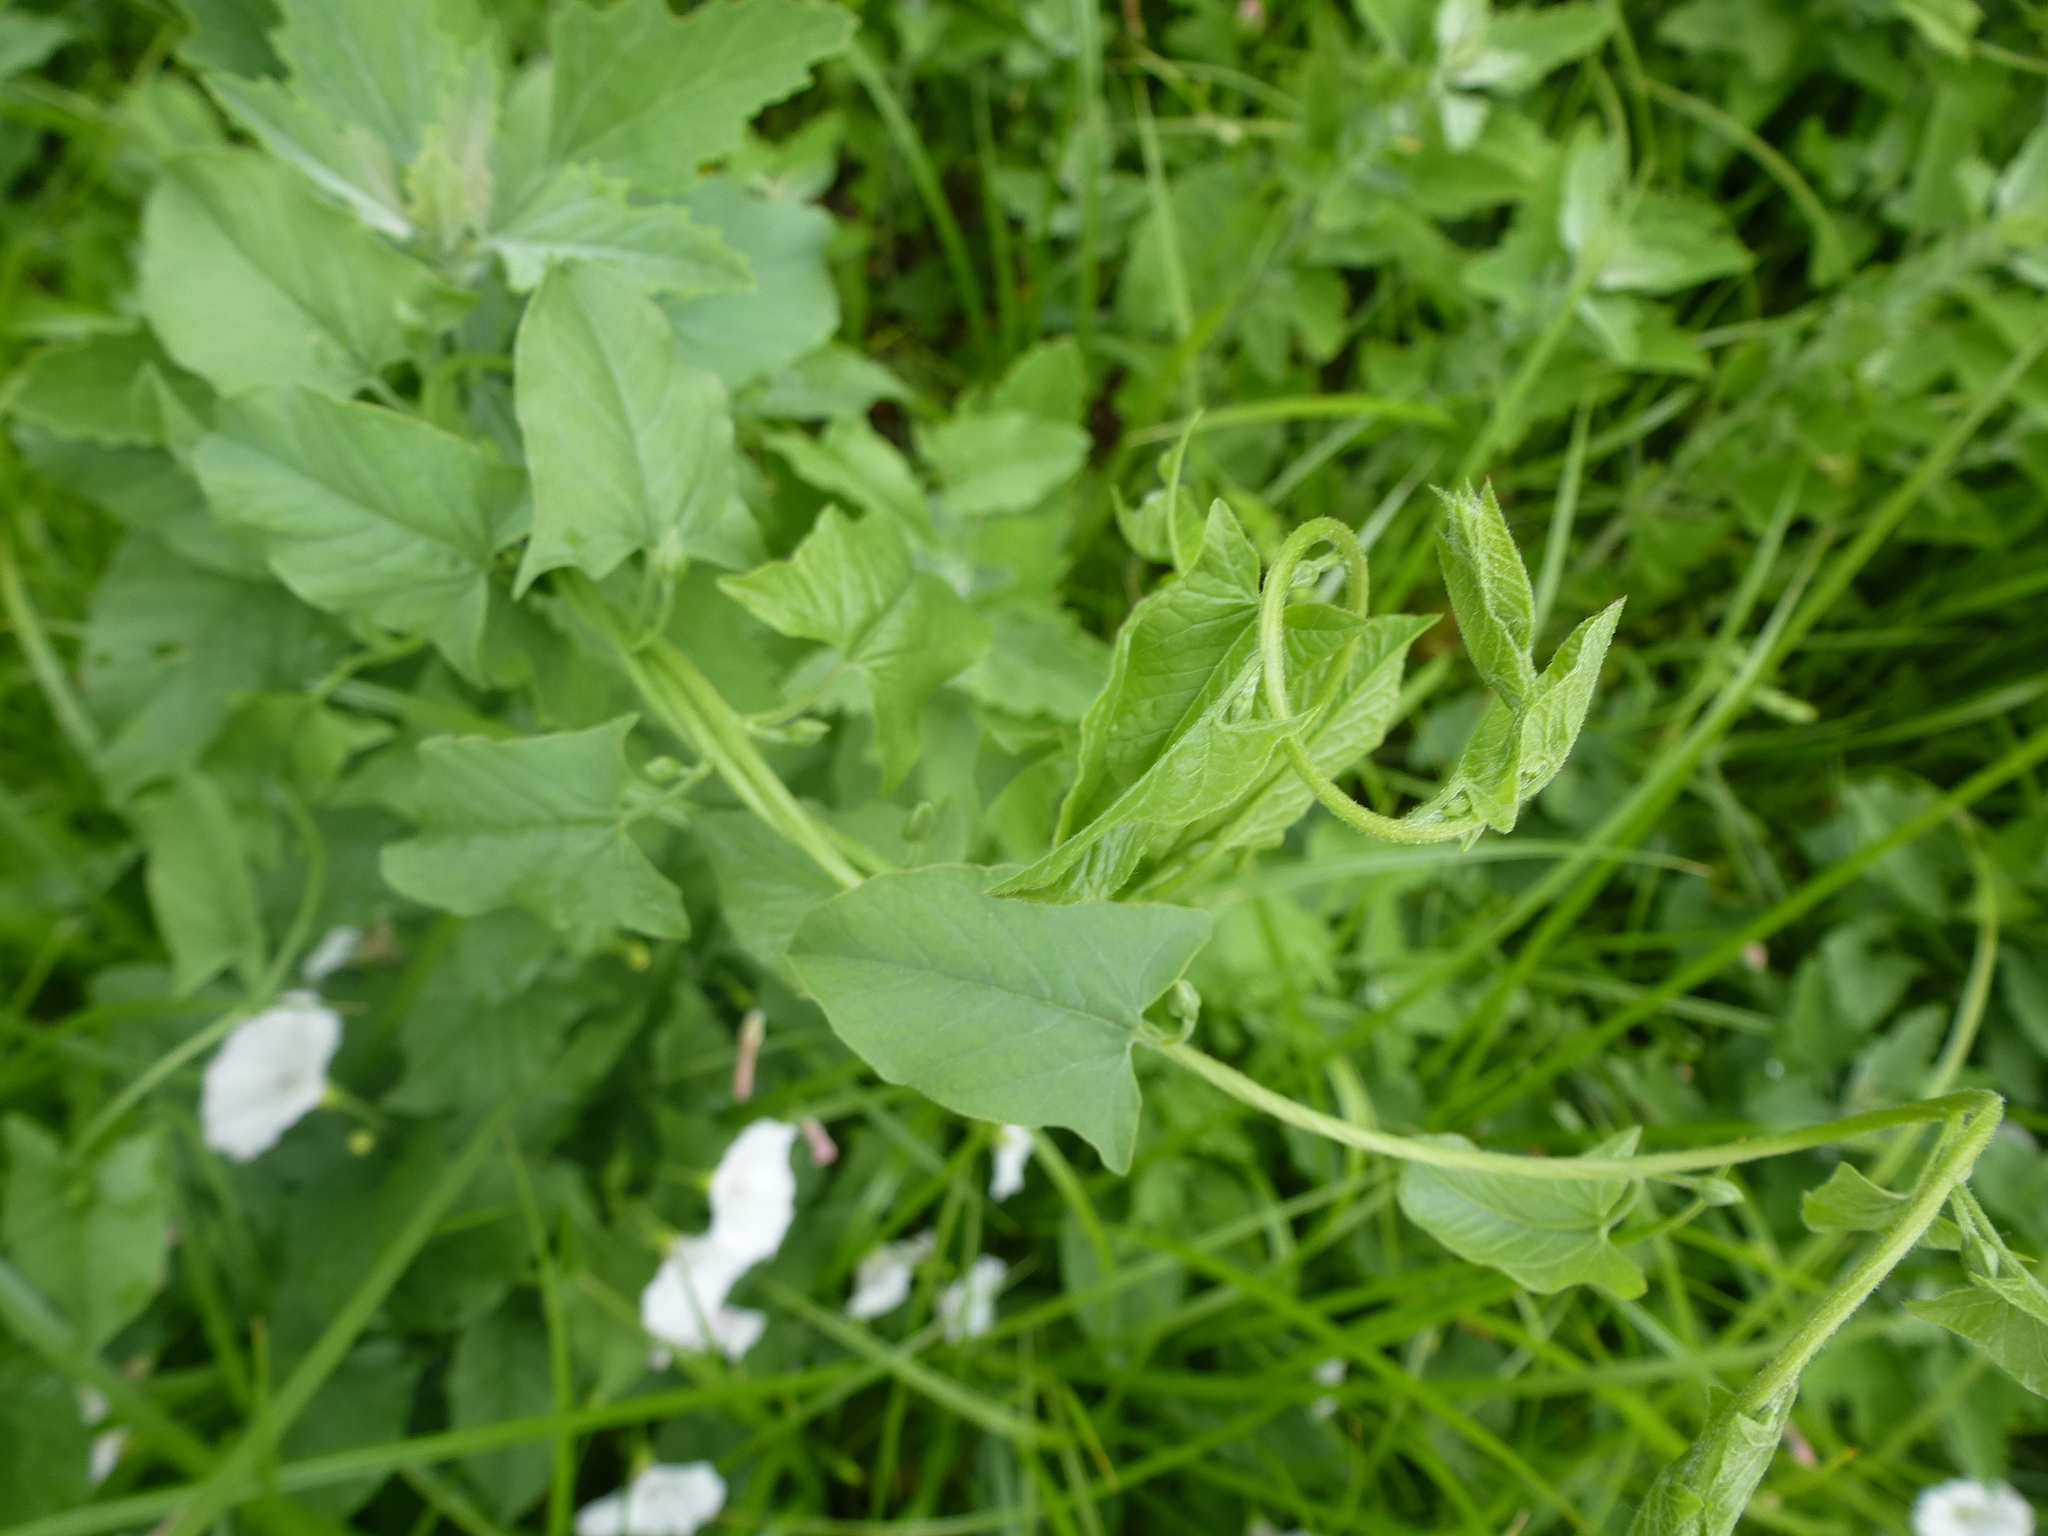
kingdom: Plantae
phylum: Tracheophyta
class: Magnoliopsida
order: Solanales
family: Convolvulaceae
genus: Convolvulus
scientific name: Convolvulus arvensis
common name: Field bindweed
